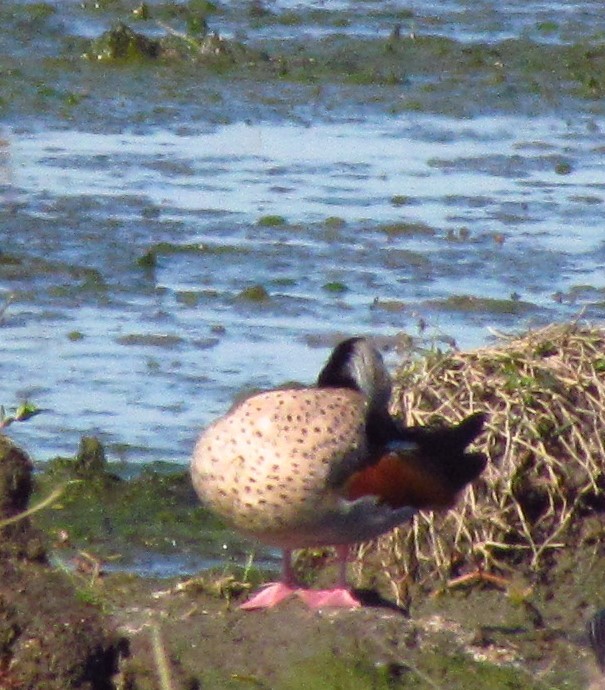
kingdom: Animalia
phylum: Chordata
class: Aves
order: Anseriformes
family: Anatidae
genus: Callonetta
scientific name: Callonetta leucophrys
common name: Ringed teal
